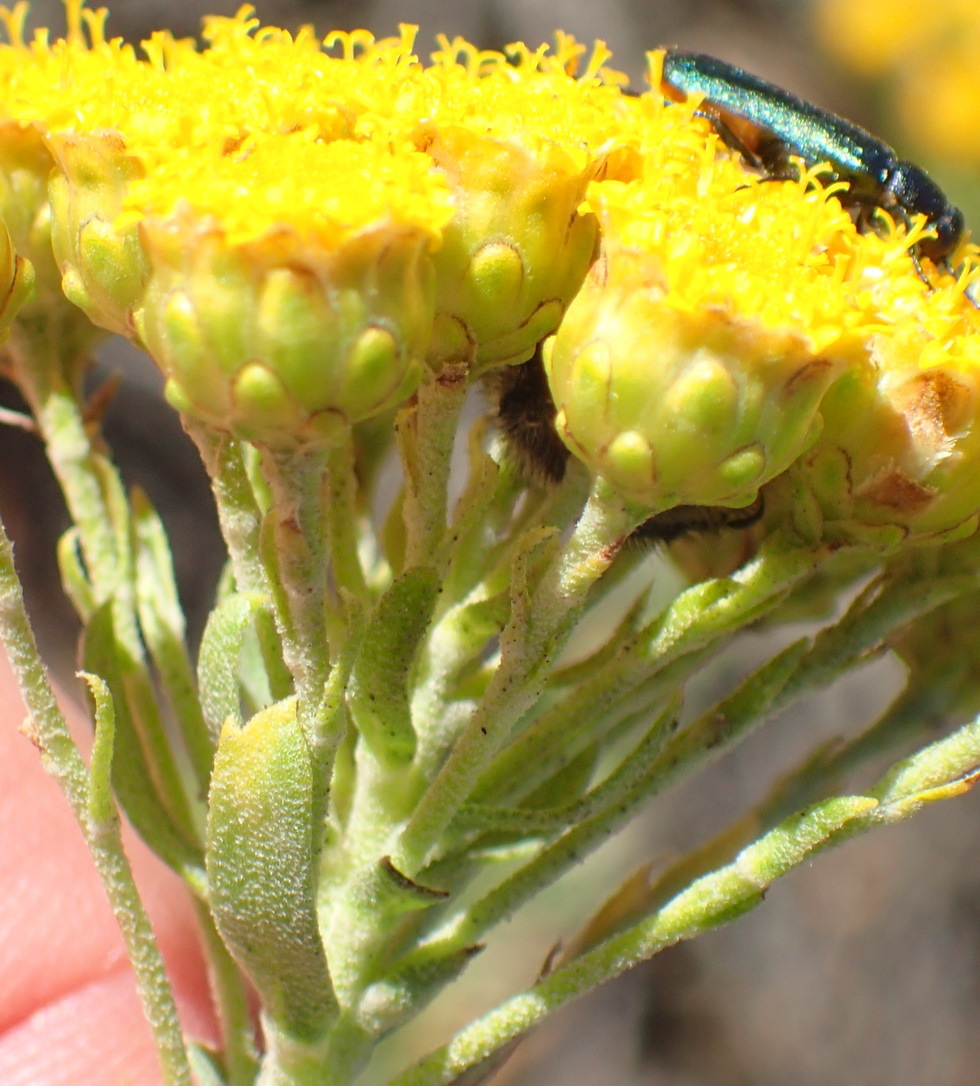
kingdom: Plantae
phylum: Tracheophyta
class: Magnoliopsida
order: Asterales
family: Asteraceae
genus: Athanasia
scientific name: Athanasia trifurcata
